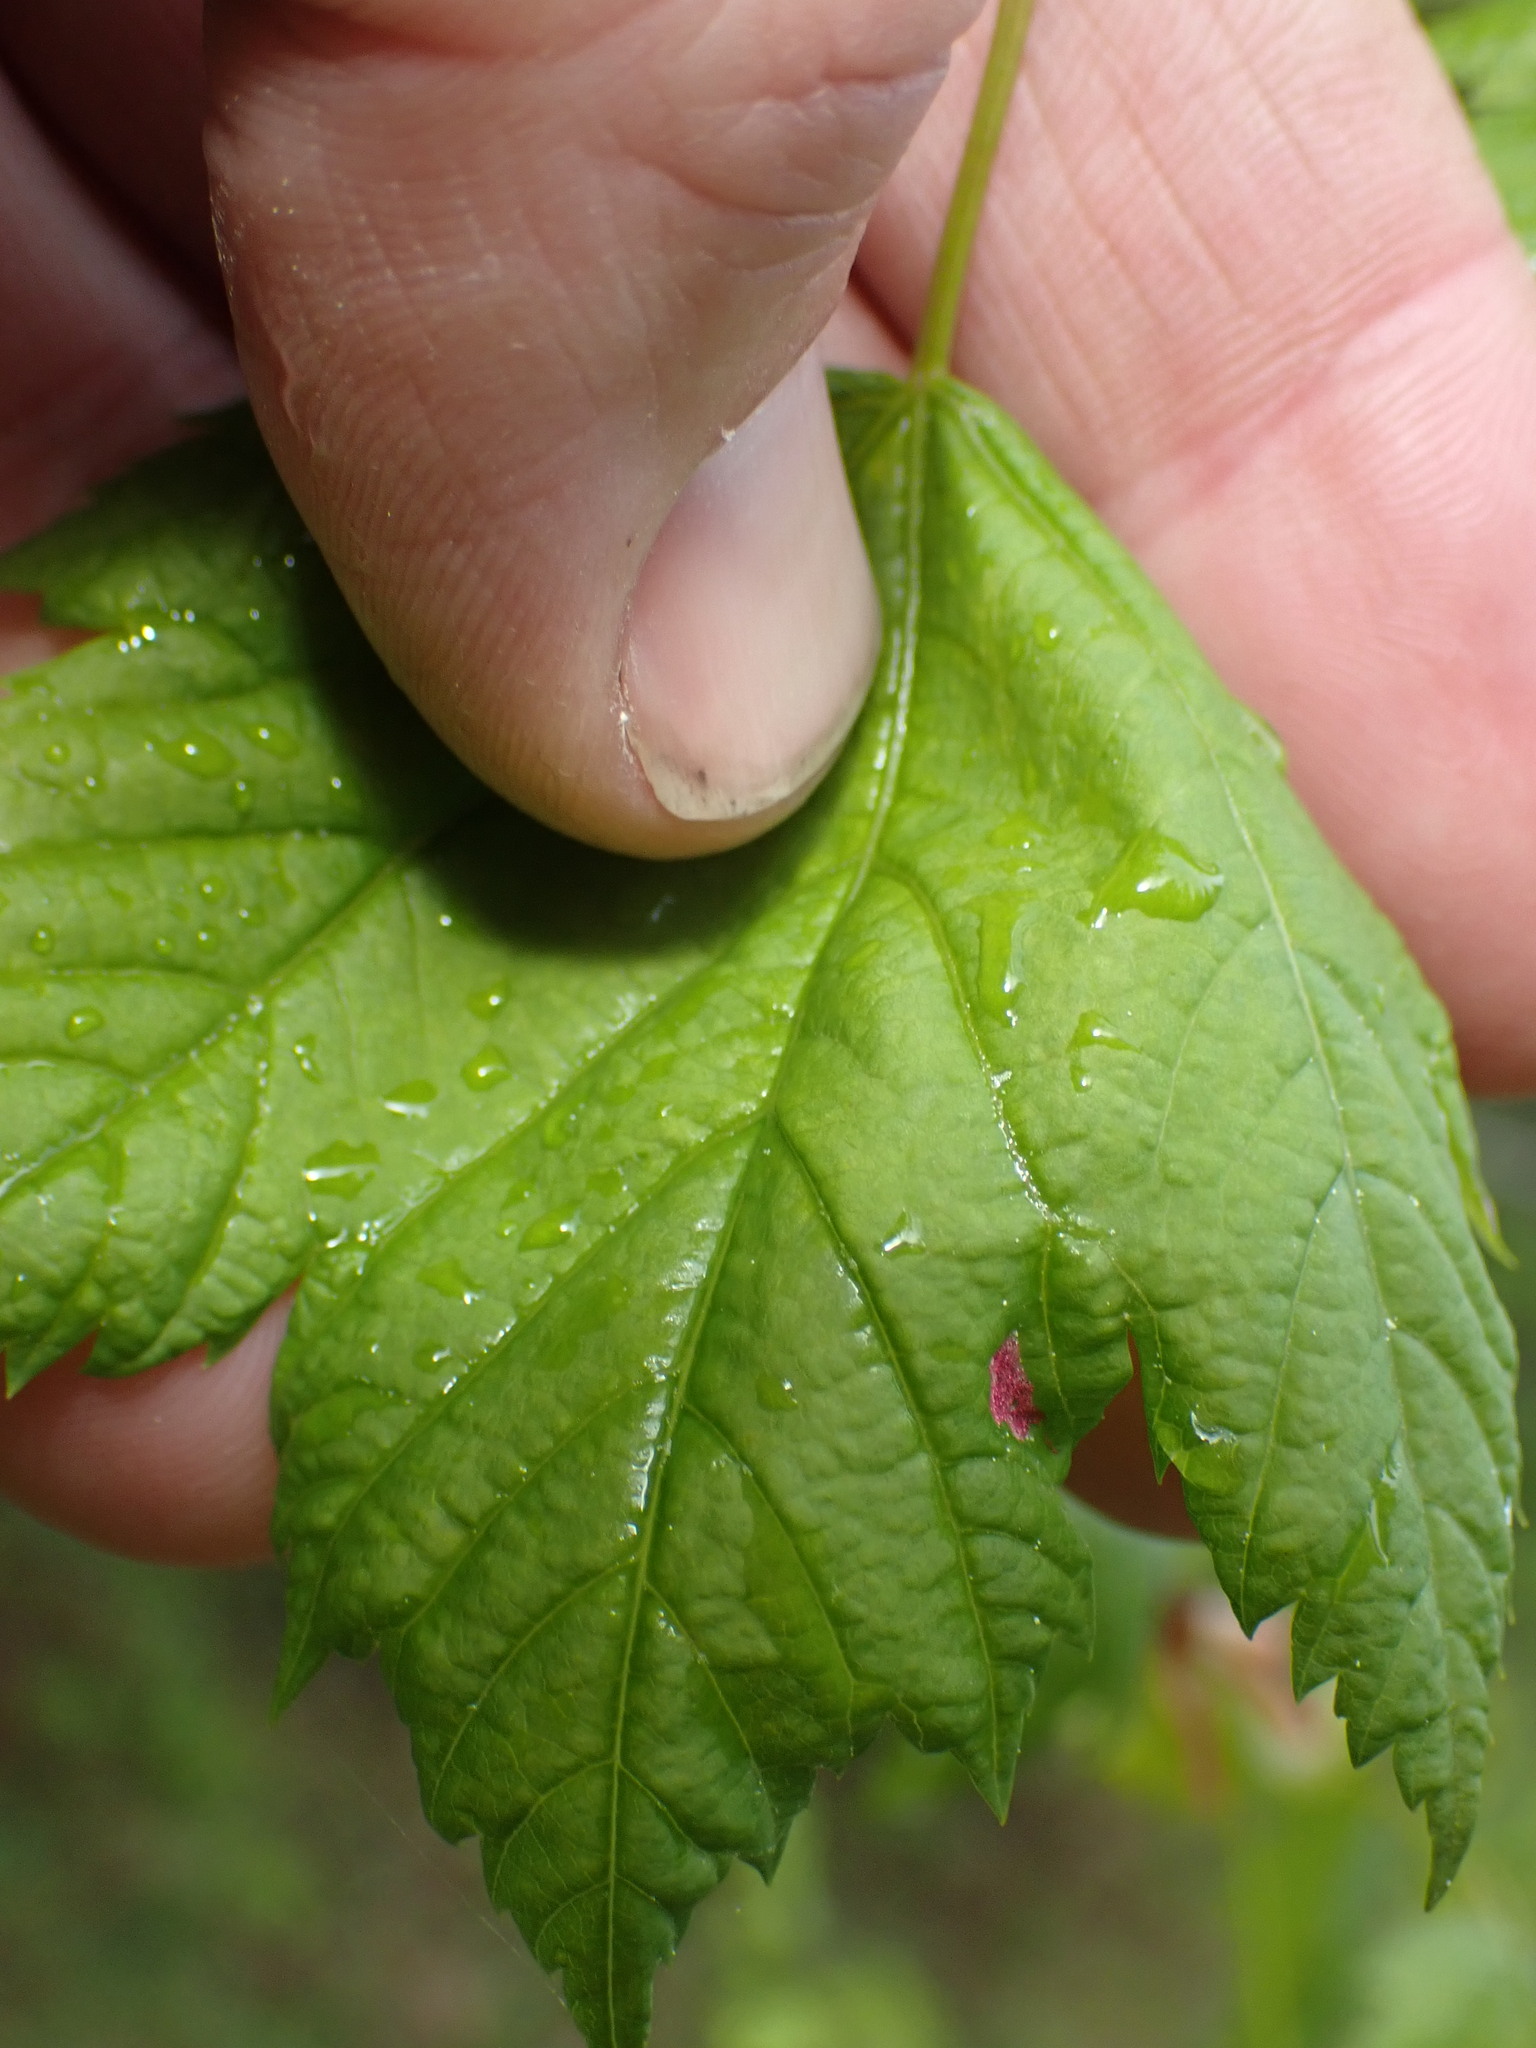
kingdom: Plantae
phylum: Tracheophyta
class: Magnoliopsida
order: Sapindales
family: Sapindaceae
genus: Acer
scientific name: Acer glabrum
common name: Rocky mountain maple
